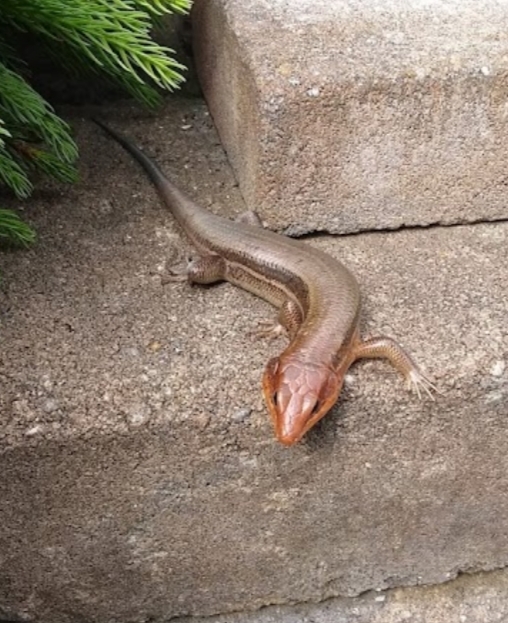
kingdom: Animalia
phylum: Chordata
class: Squamata
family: Scincidae
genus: Plestiodon
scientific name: Plestiodon laticeps
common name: Broadhead skink
